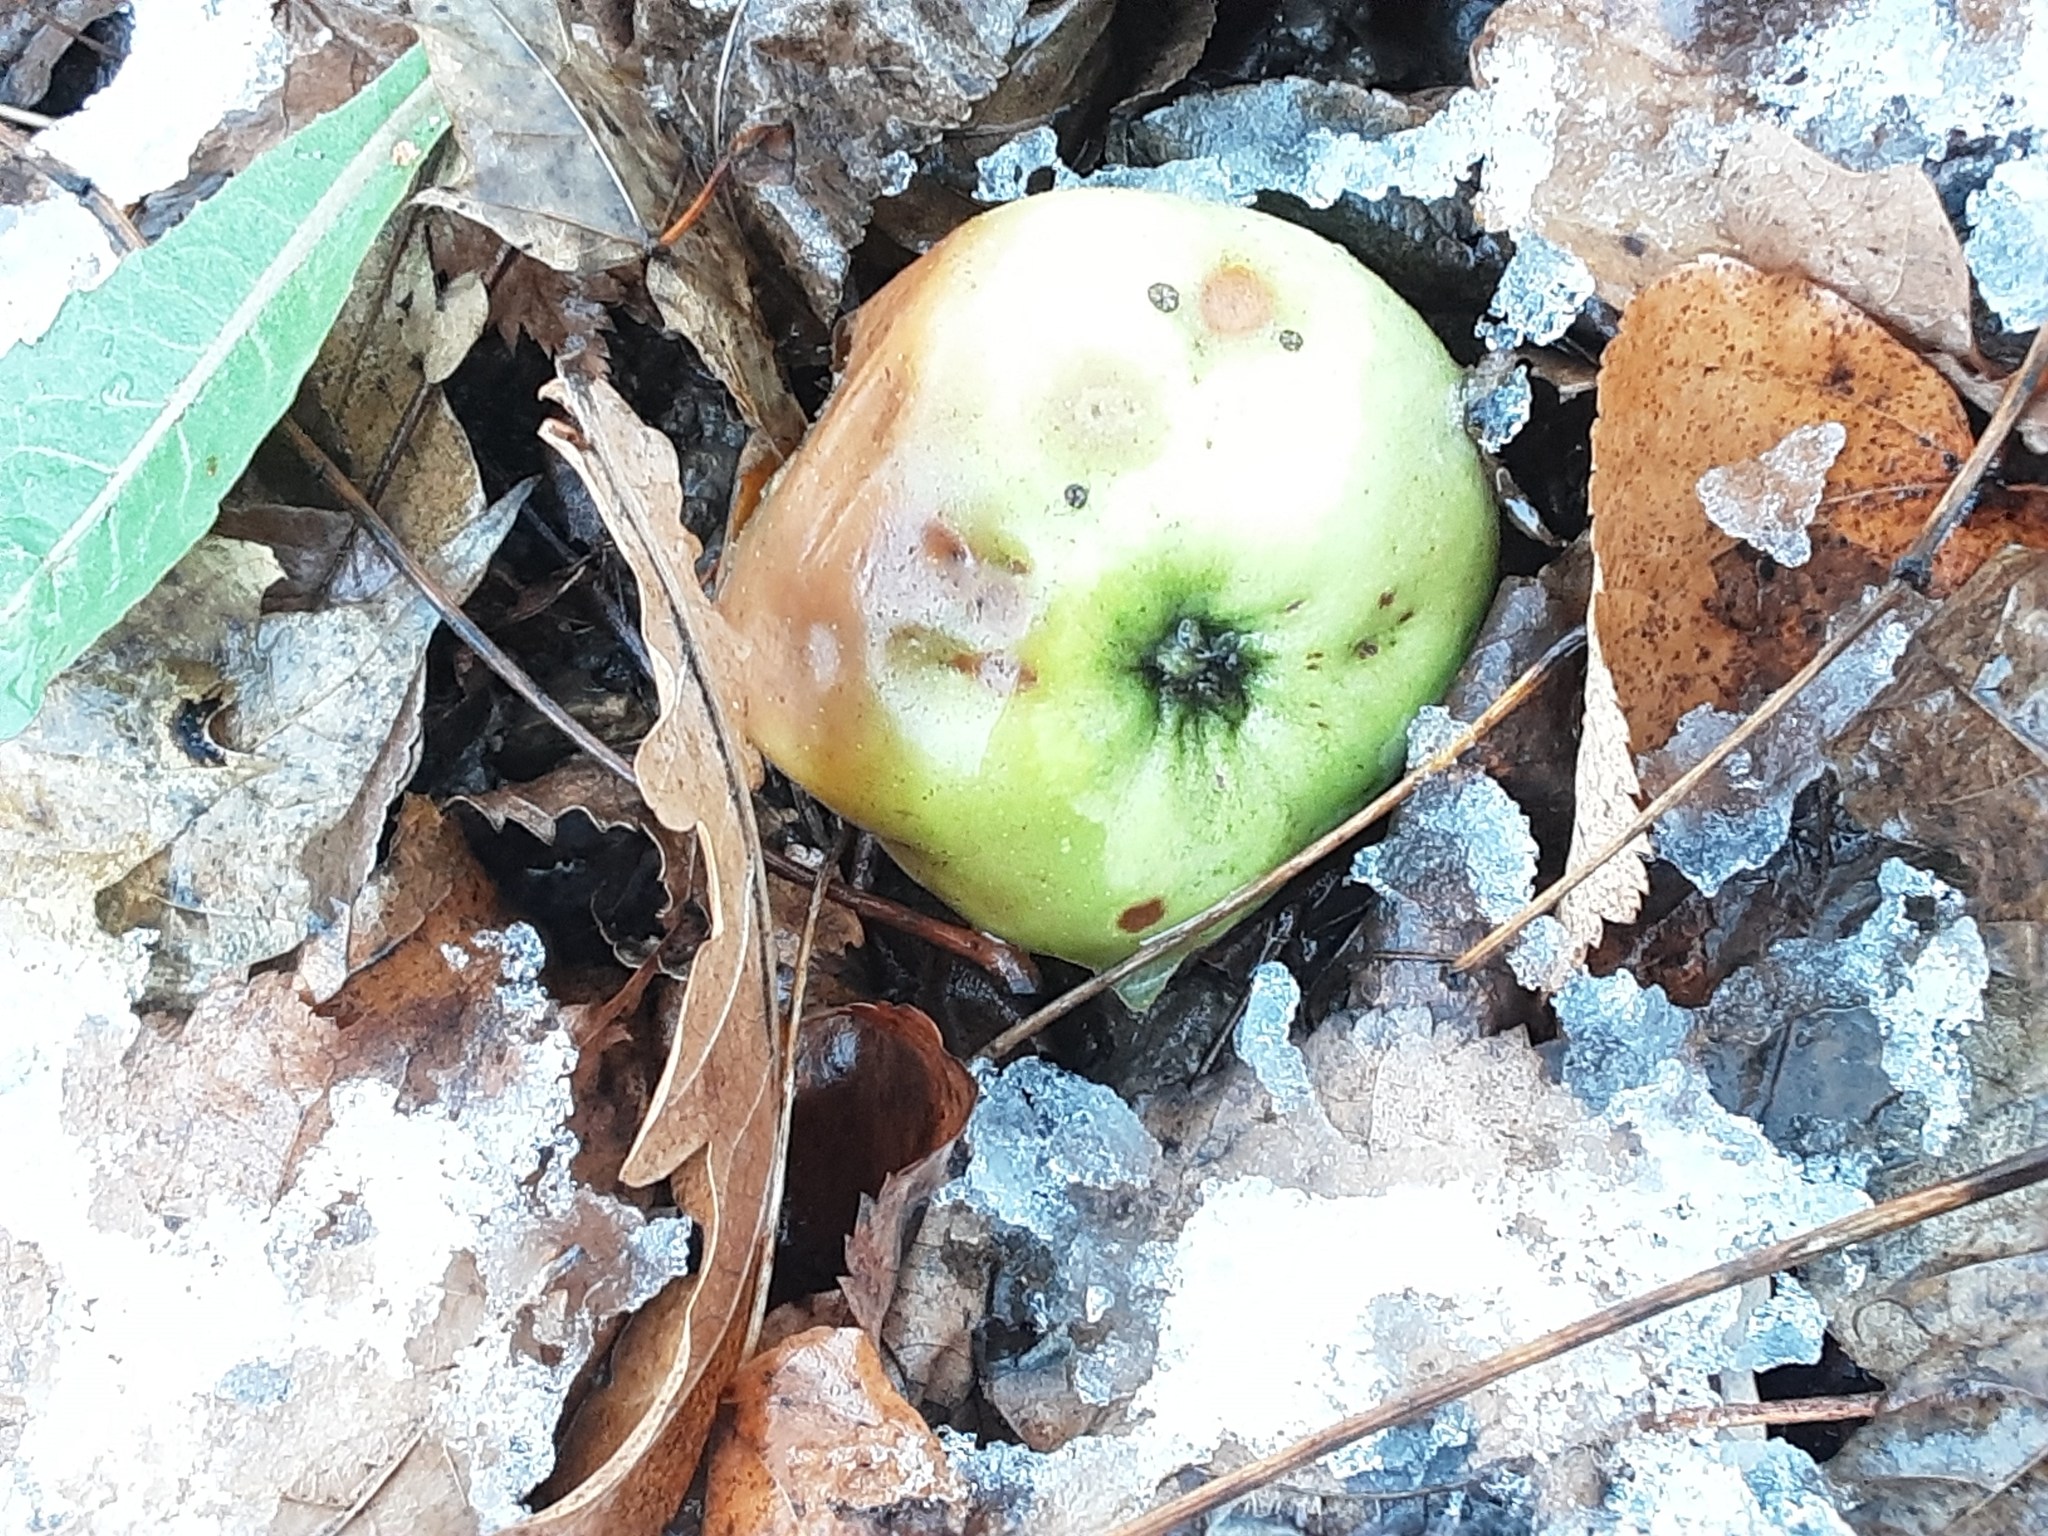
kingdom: Plantae
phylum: Tracheophyta
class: Magnoliopsida
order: Rosales
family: Rosaceae
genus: Malus
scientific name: Malus domestica
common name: Apple
